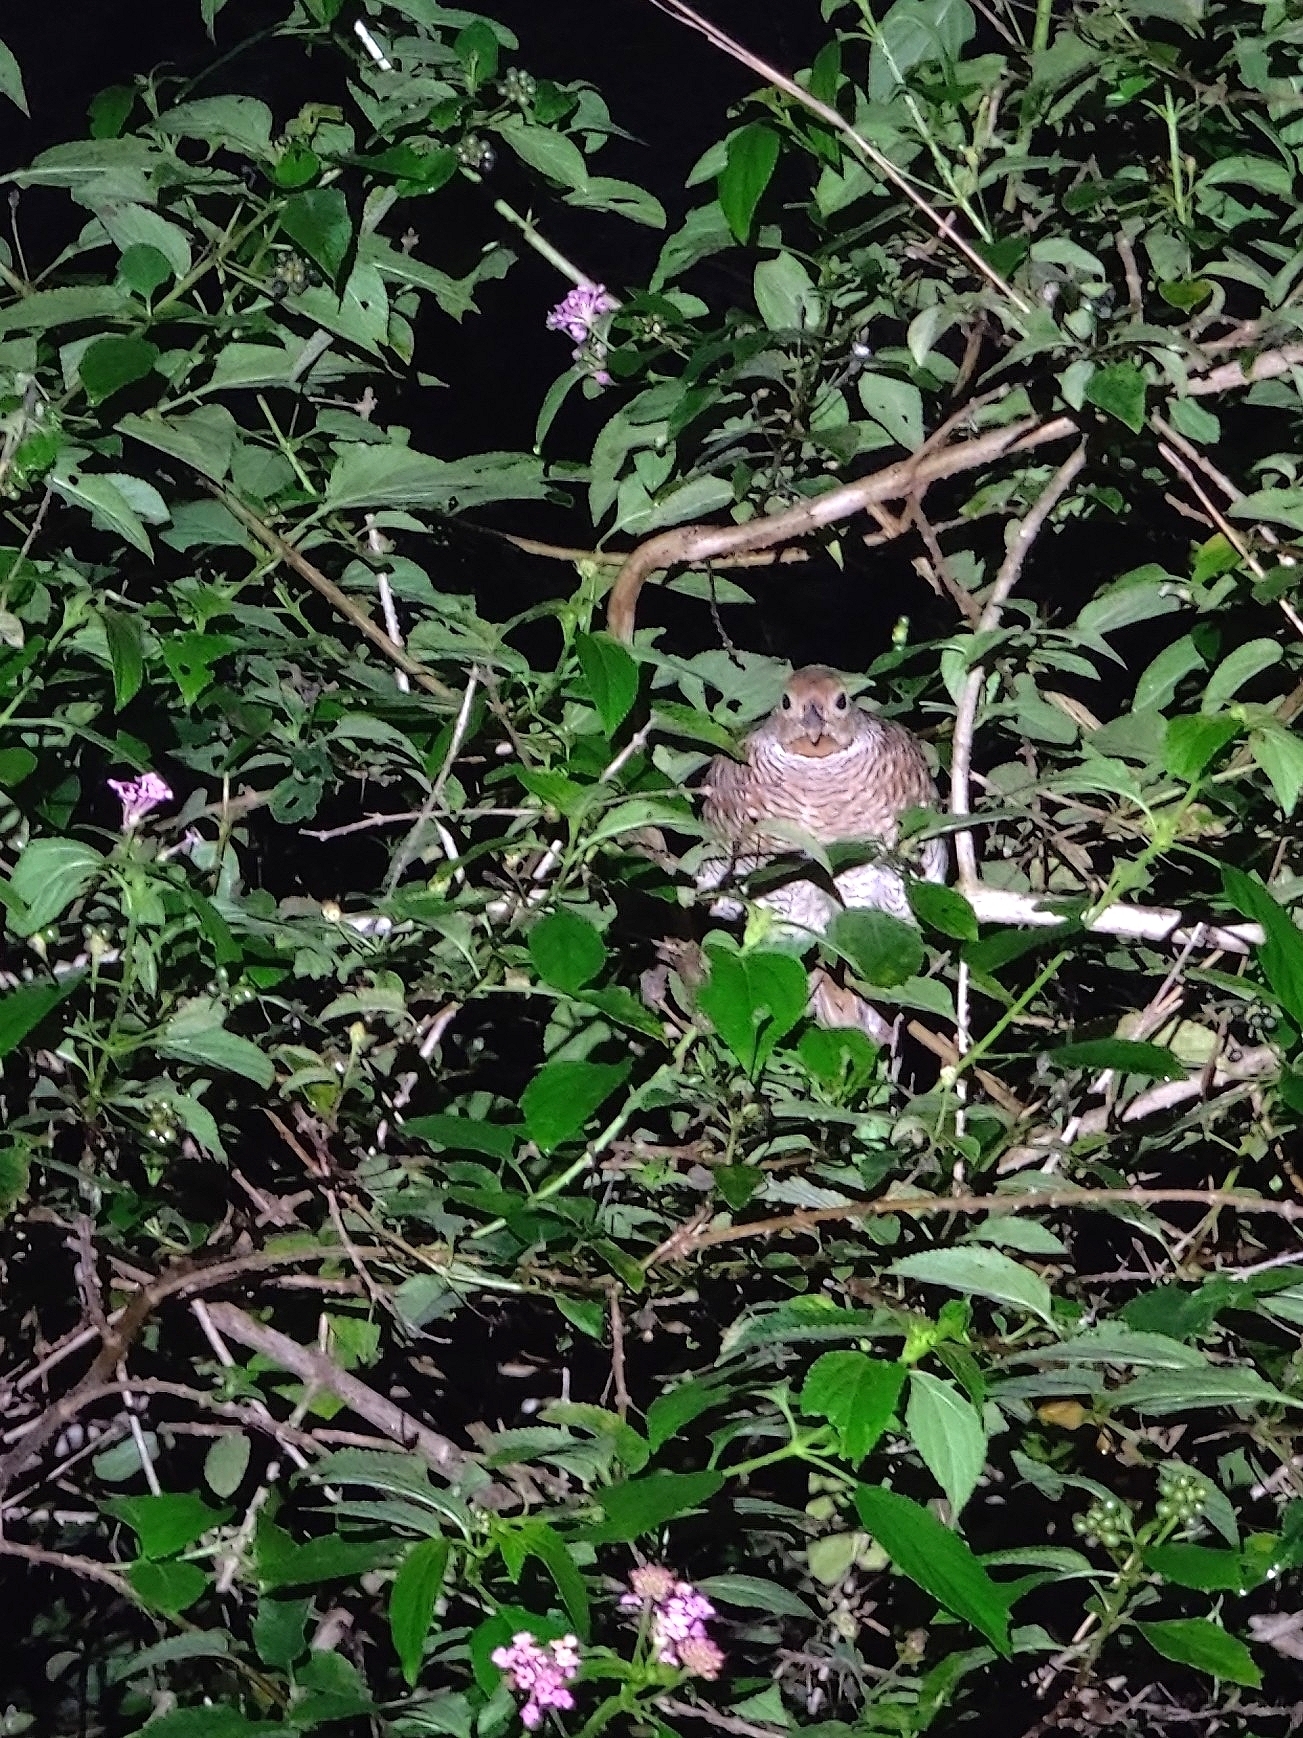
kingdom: Animalia
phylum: Chordata
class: Aves
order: Galliformes
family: Phasianidae
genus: Ortygornis
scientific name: Ortygornis pondicerianus
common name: Grey francolin
